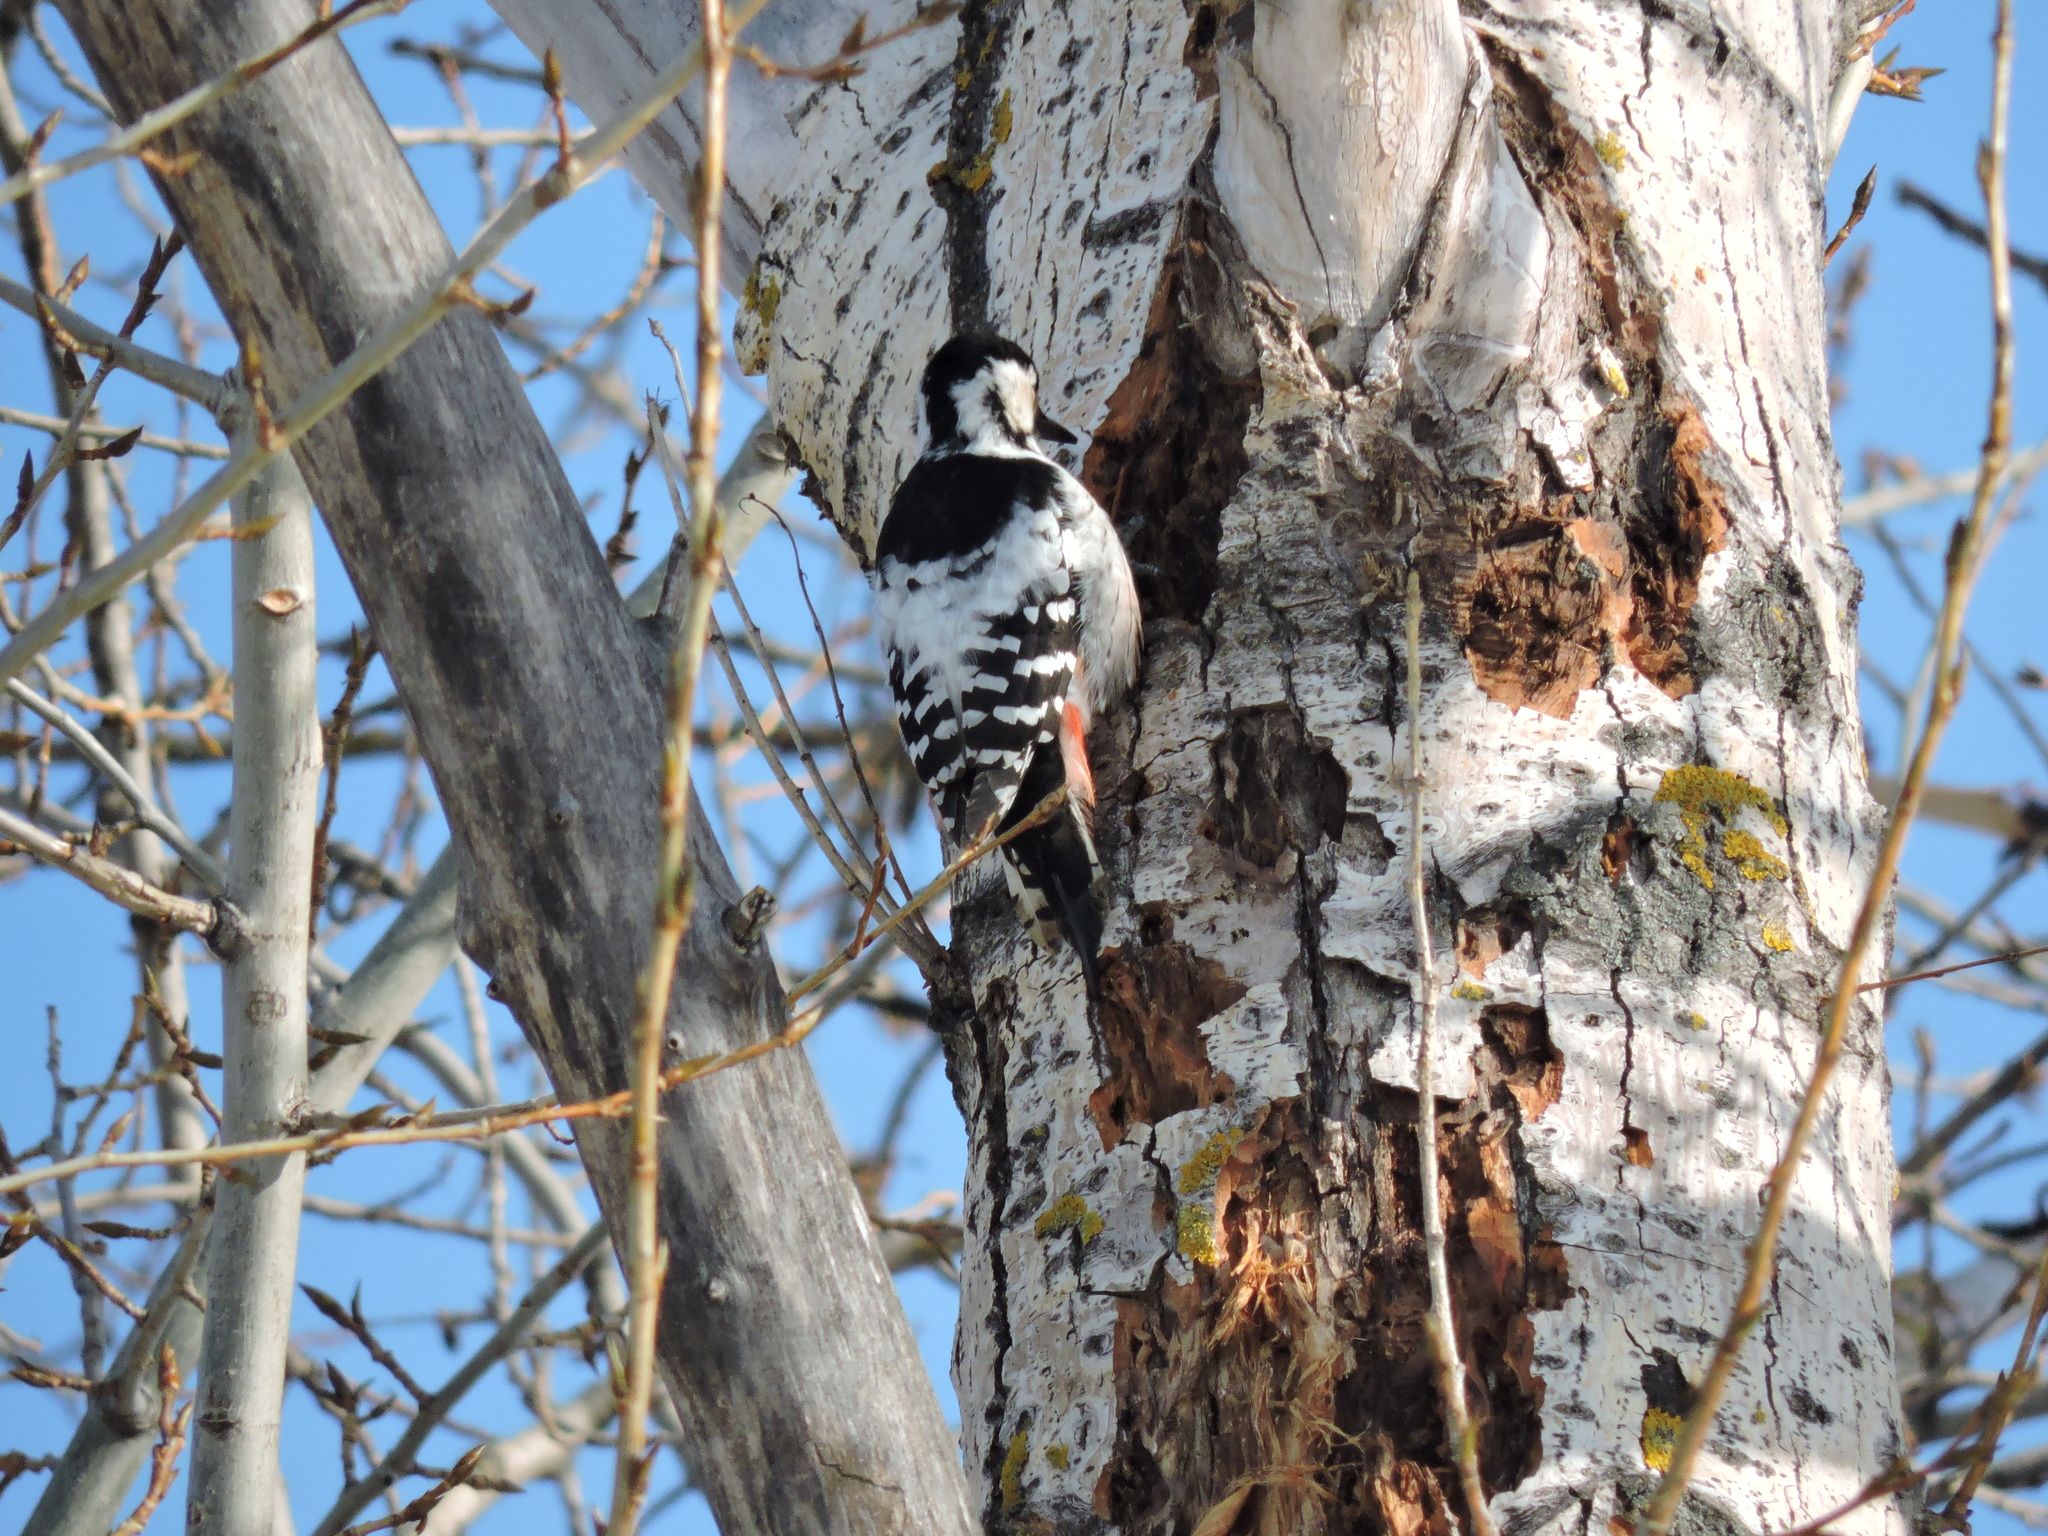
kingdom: Animalia
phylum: Chordata
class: Aves
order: Piciformes
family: Picidae
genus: Dendrocopos
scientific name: Dendrocopos leucotos
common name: White-backed woodpecker
